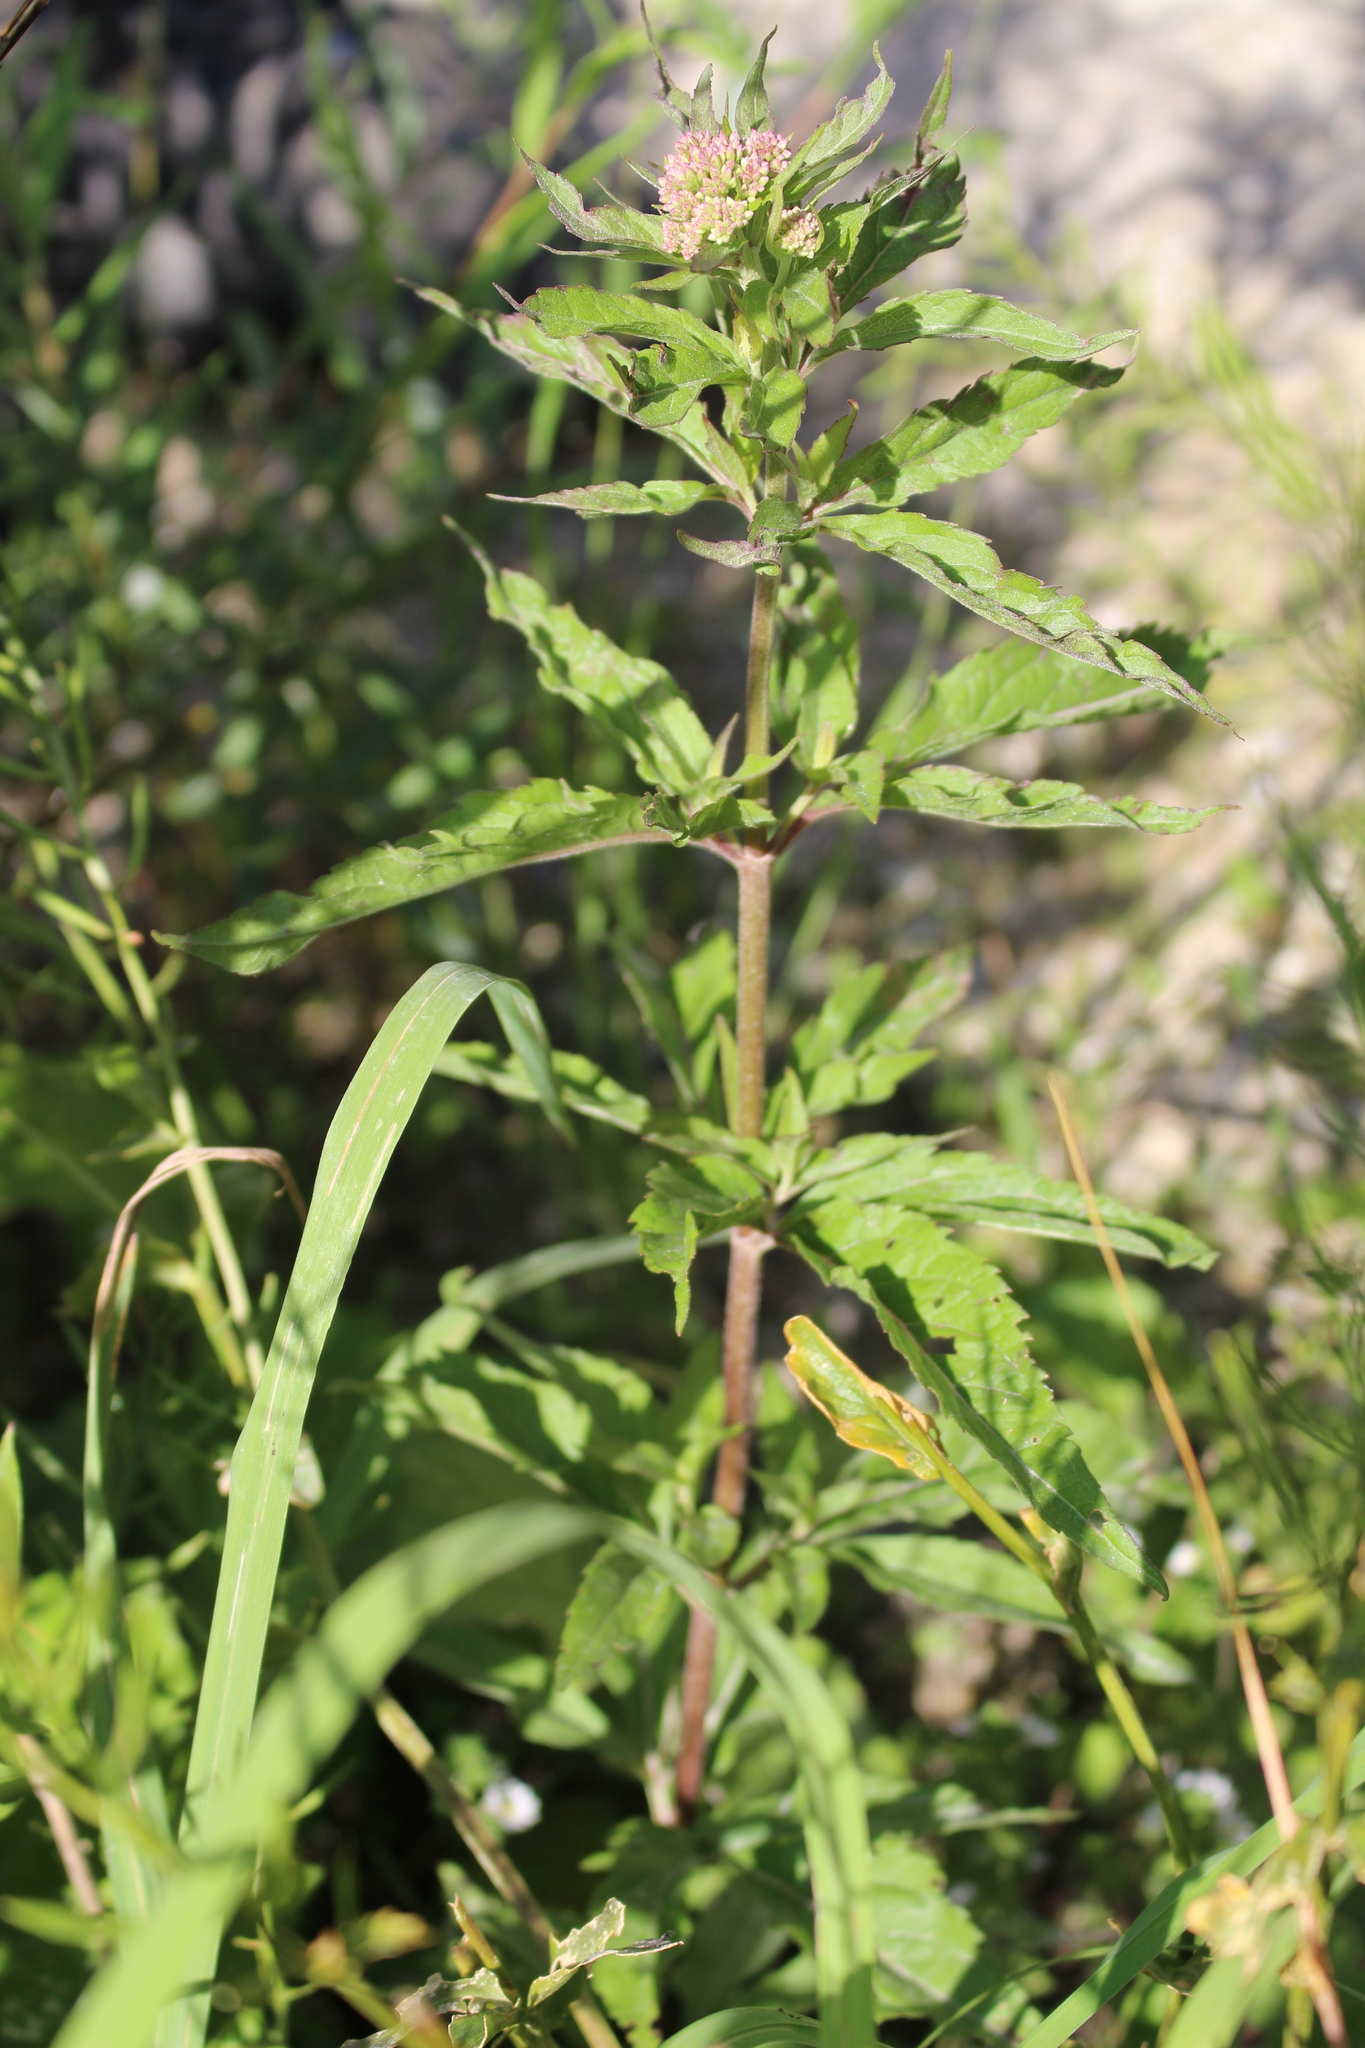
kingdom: Plantae
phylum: Tracheophyta
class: Magnoliopsida
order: Asterales
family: Asteraceae
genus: Eupatorium
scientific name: Eupatorium cannabinum
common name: Hemp-agrimony
